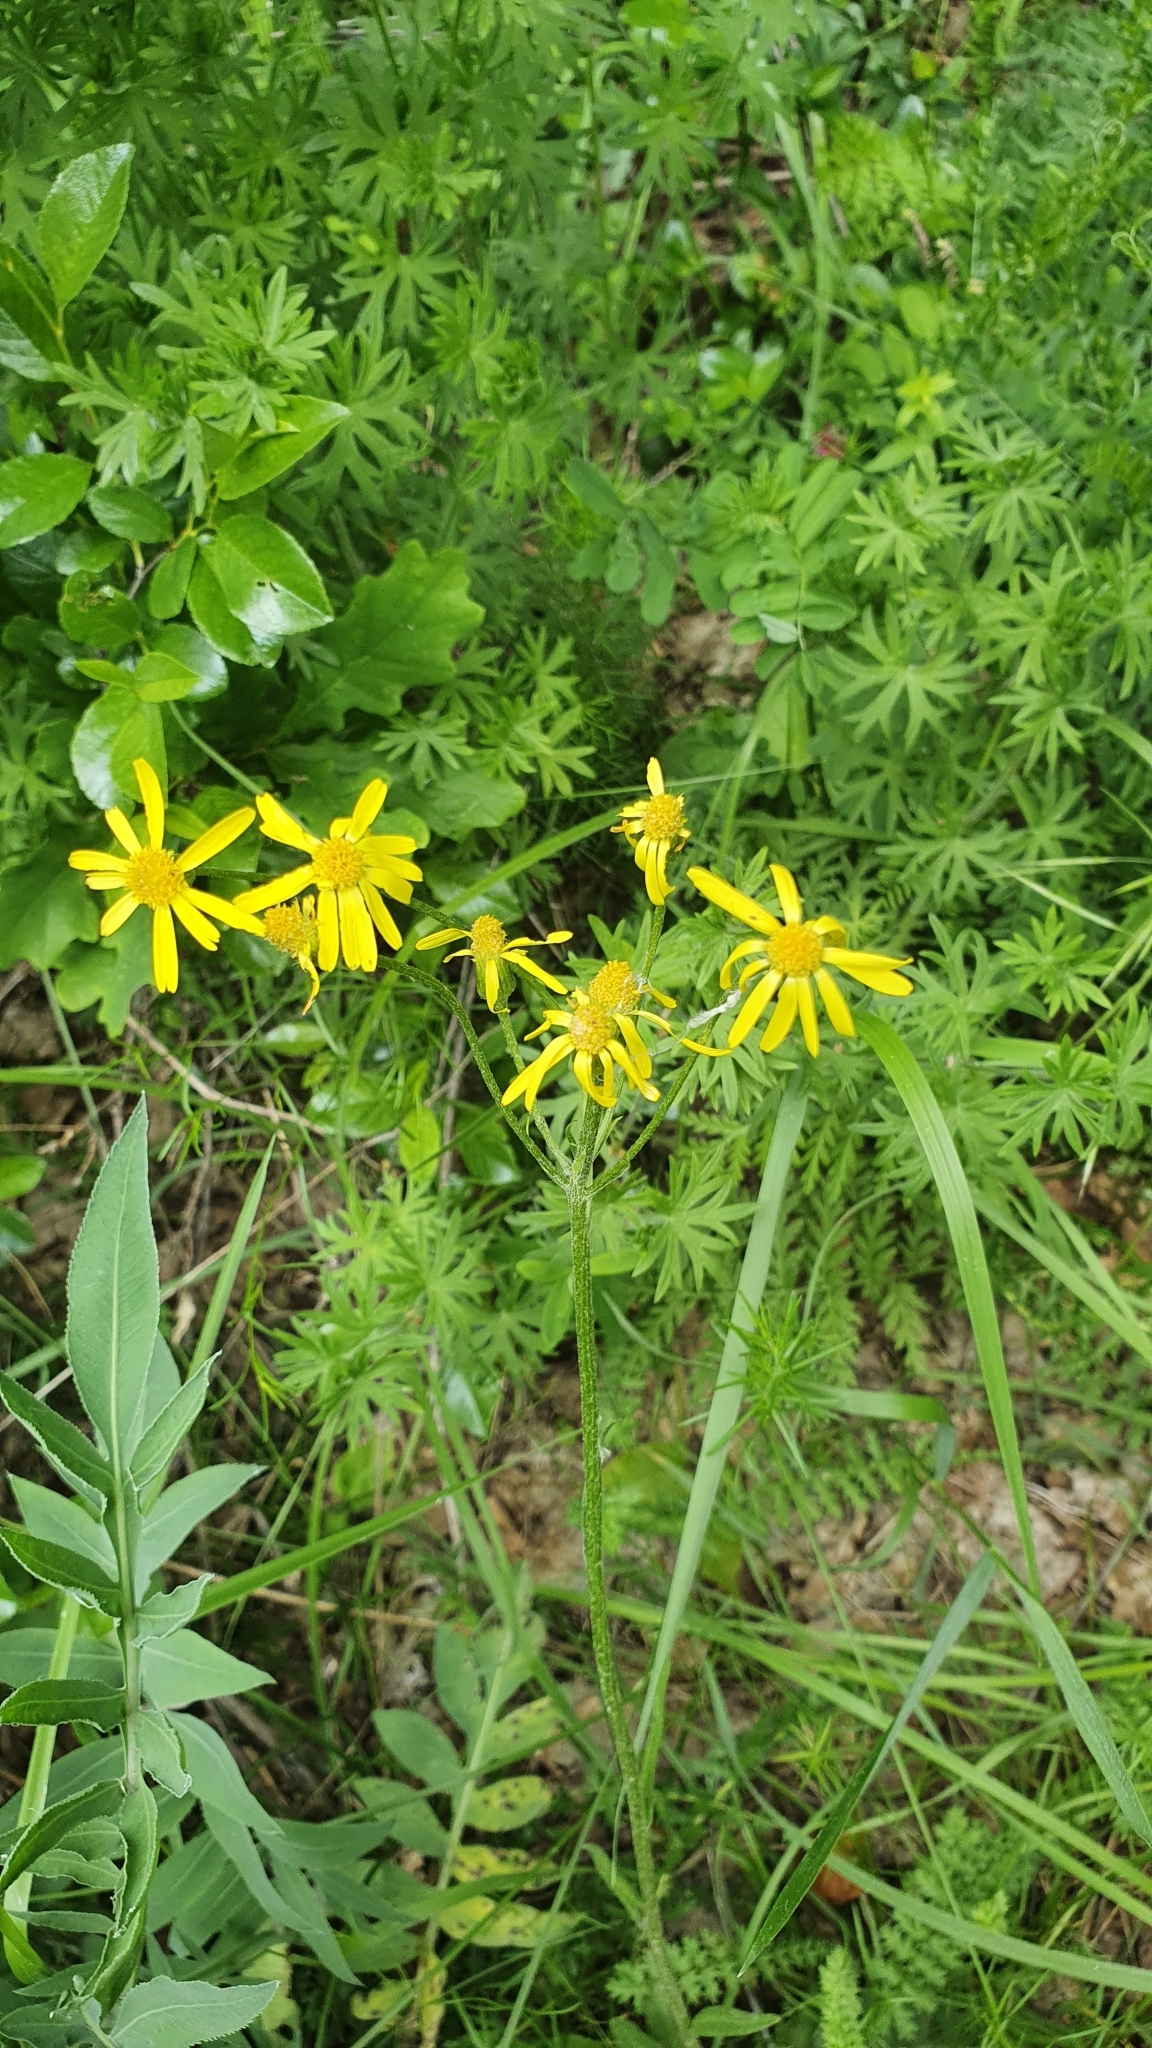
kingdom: Plantae
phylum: Tracheophyta
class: Magnoliopsida
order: Asterales
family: Asteraceae
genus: Tephroseris
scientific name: Tephroseris integrifolia
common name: Field fleawort
